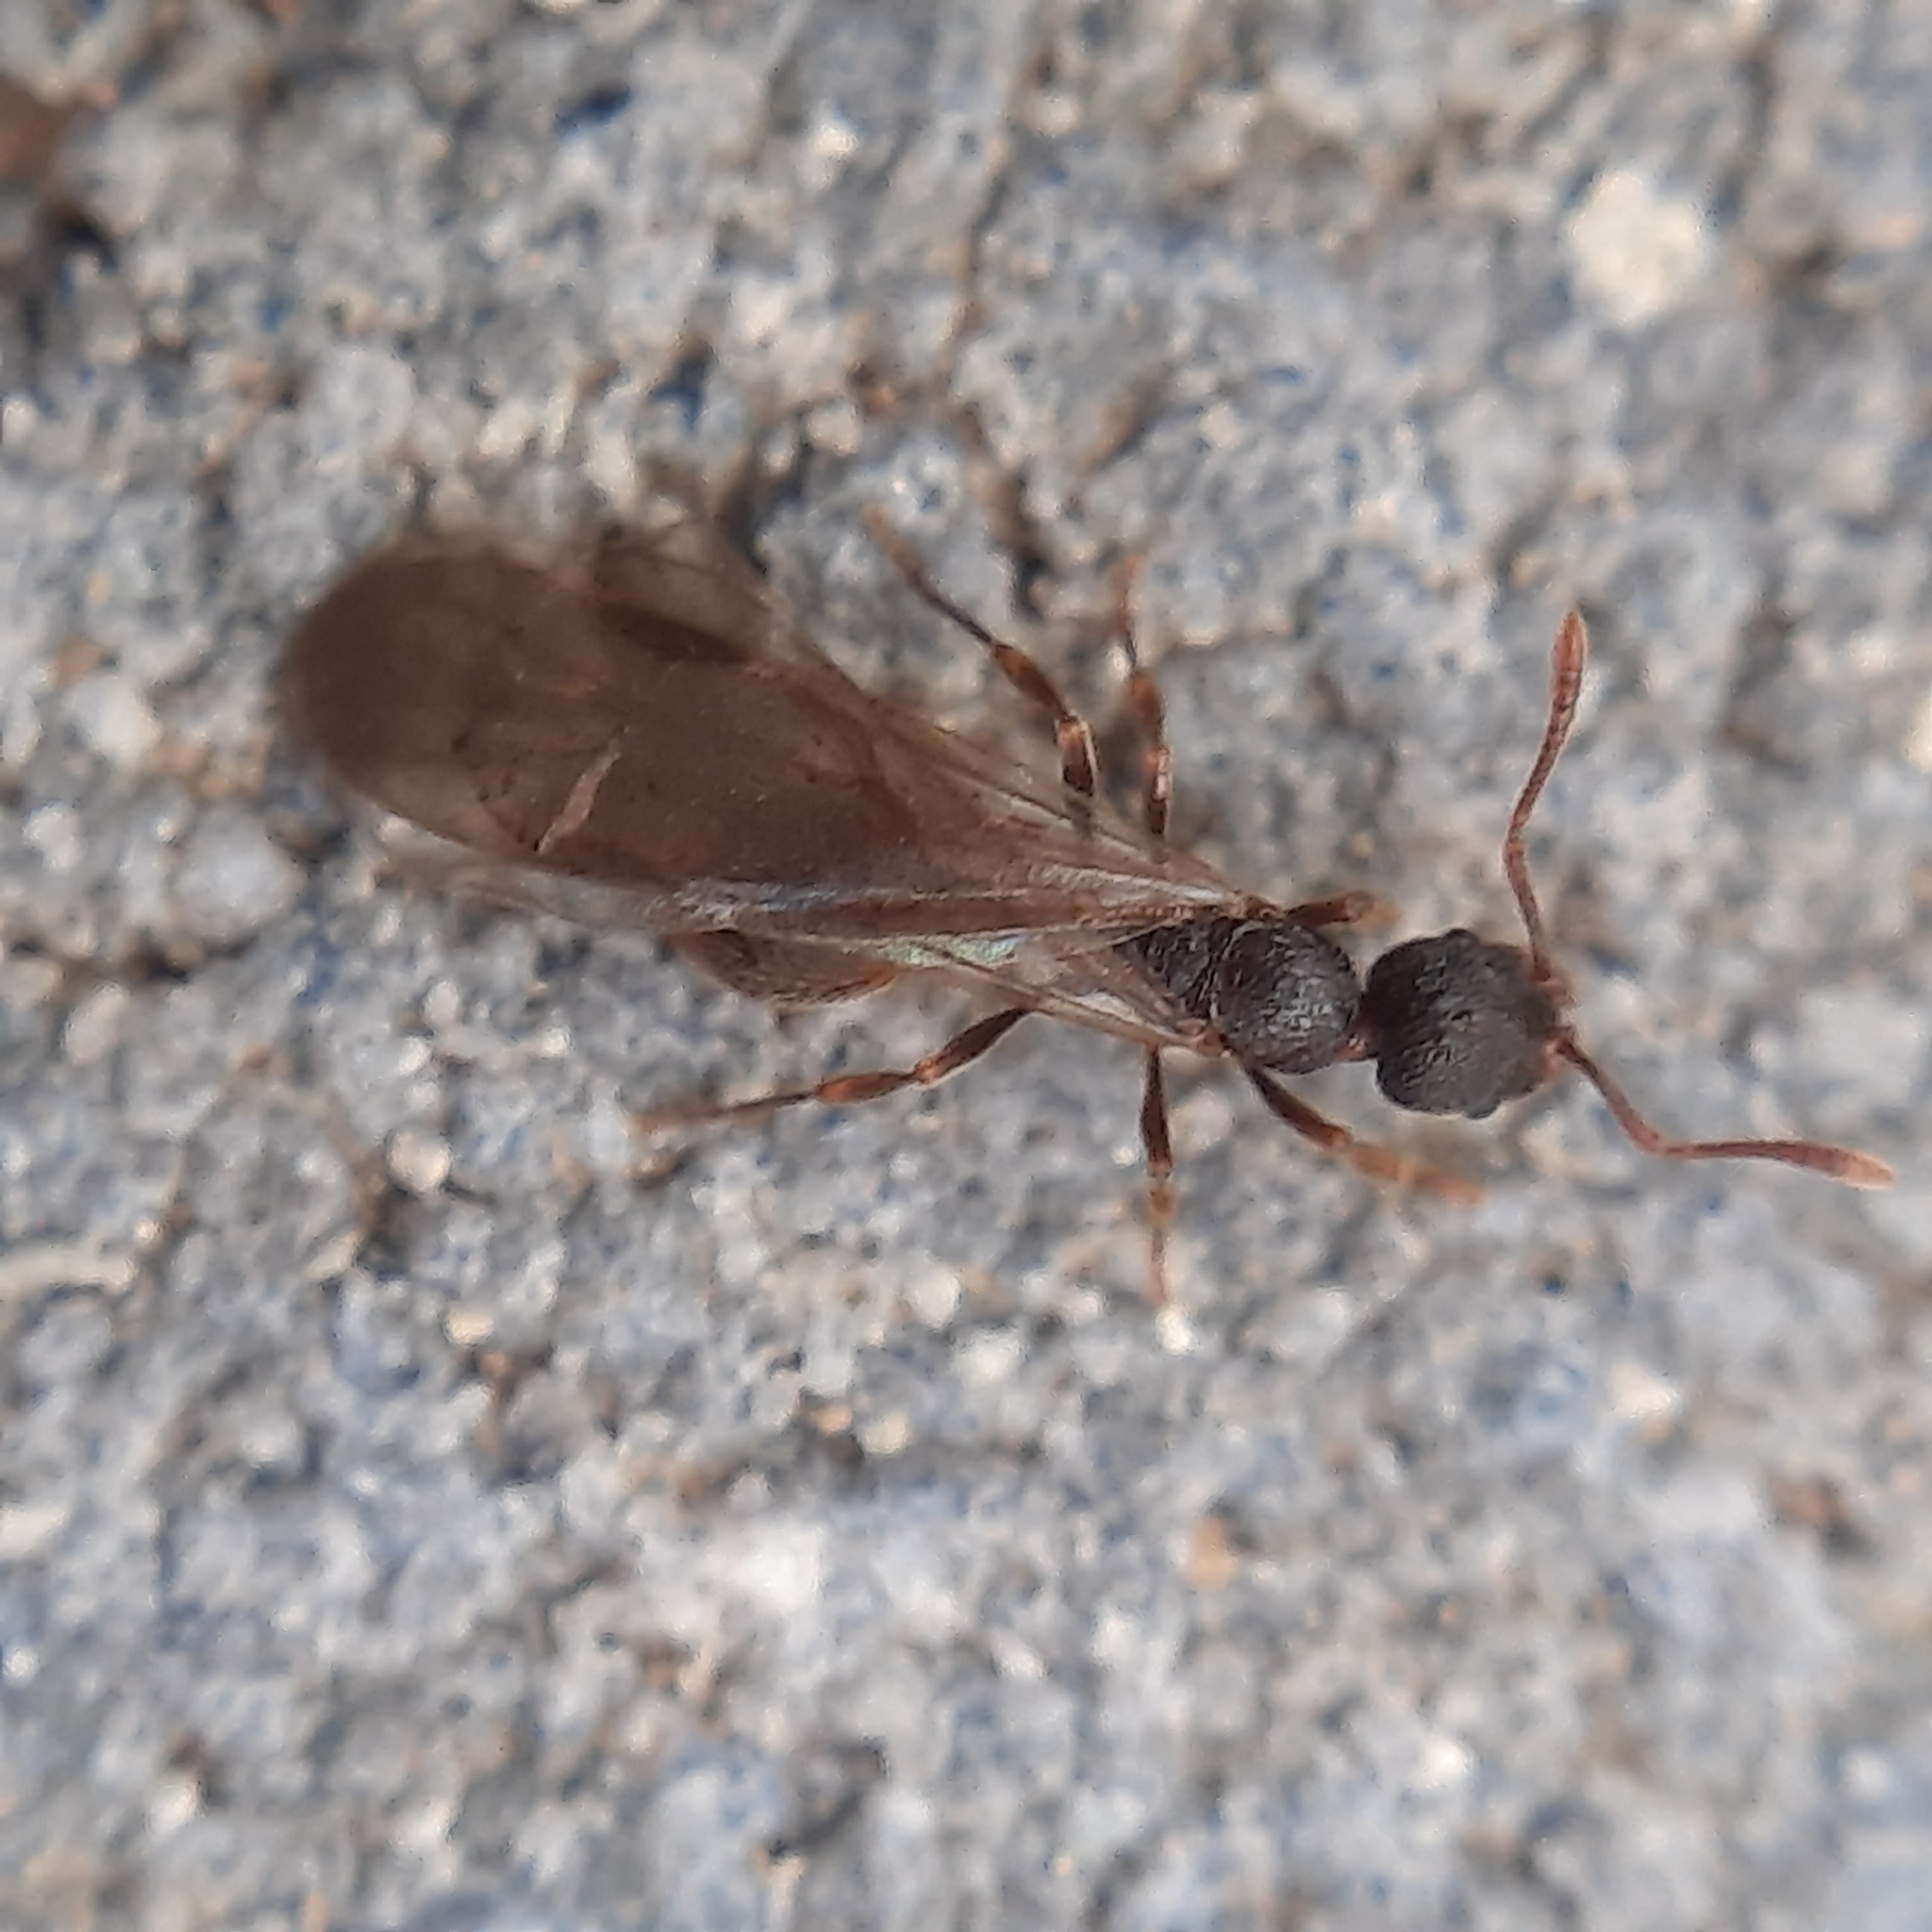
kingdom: Animalia
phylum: Arthropoda
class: Insecta
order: Hymenoptera
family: Formicidae
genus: Myrmicinae
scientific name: Myrmicinae
